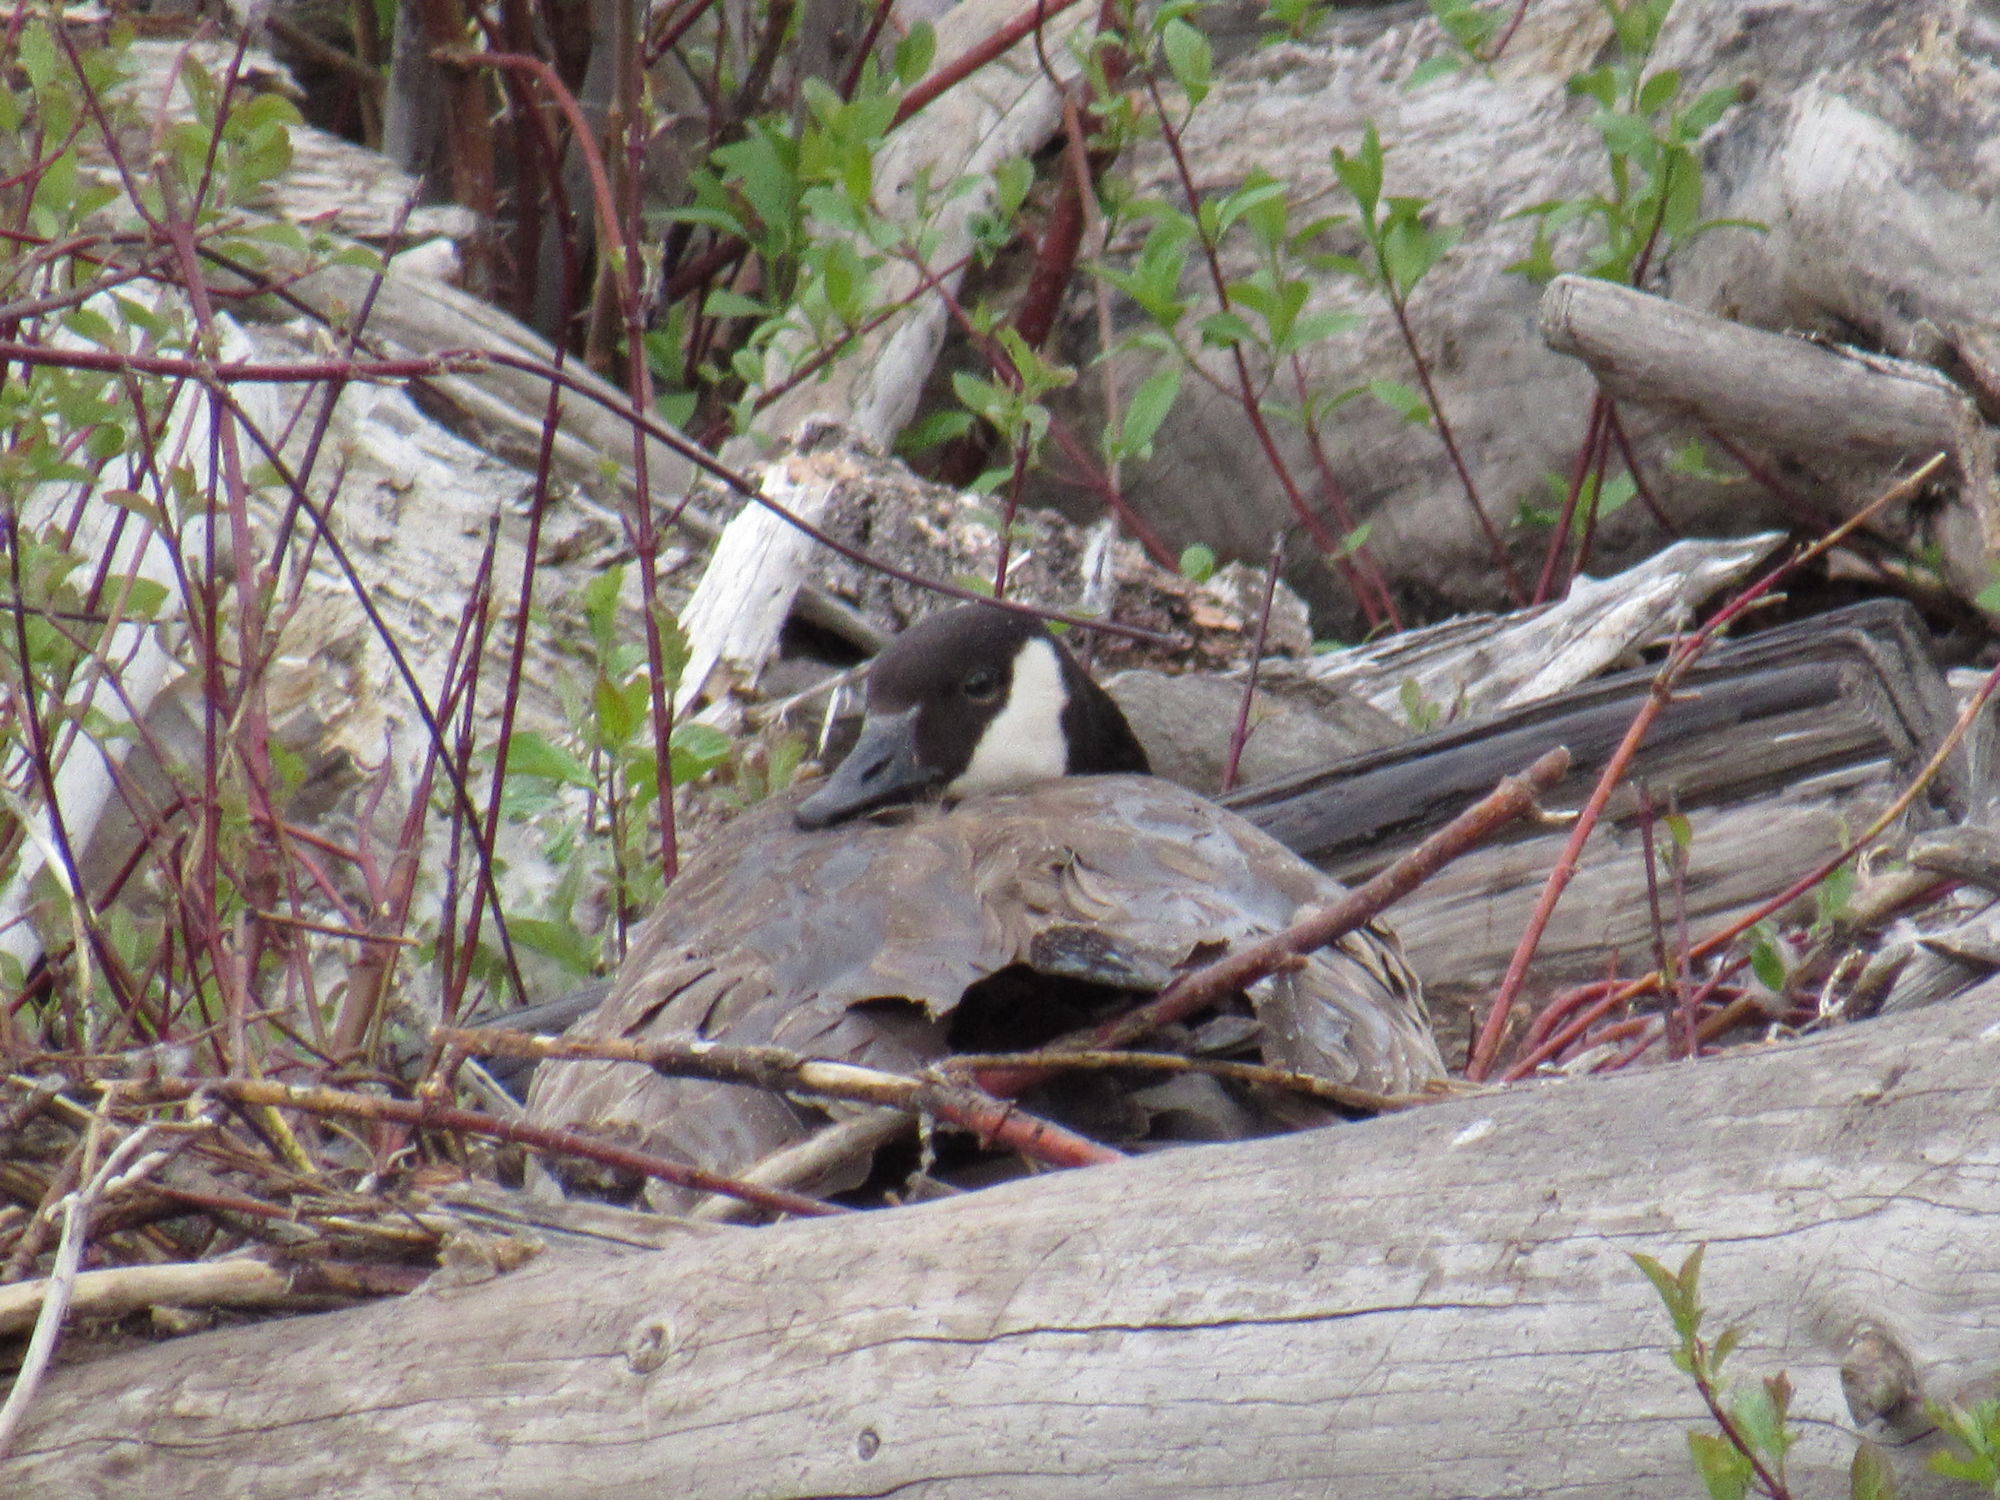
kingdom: Animalia
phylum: Chordata
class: Aves
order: Anseriformes
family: Anatidae
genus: Branta
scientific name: Branta canadensis
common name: Canada goose
